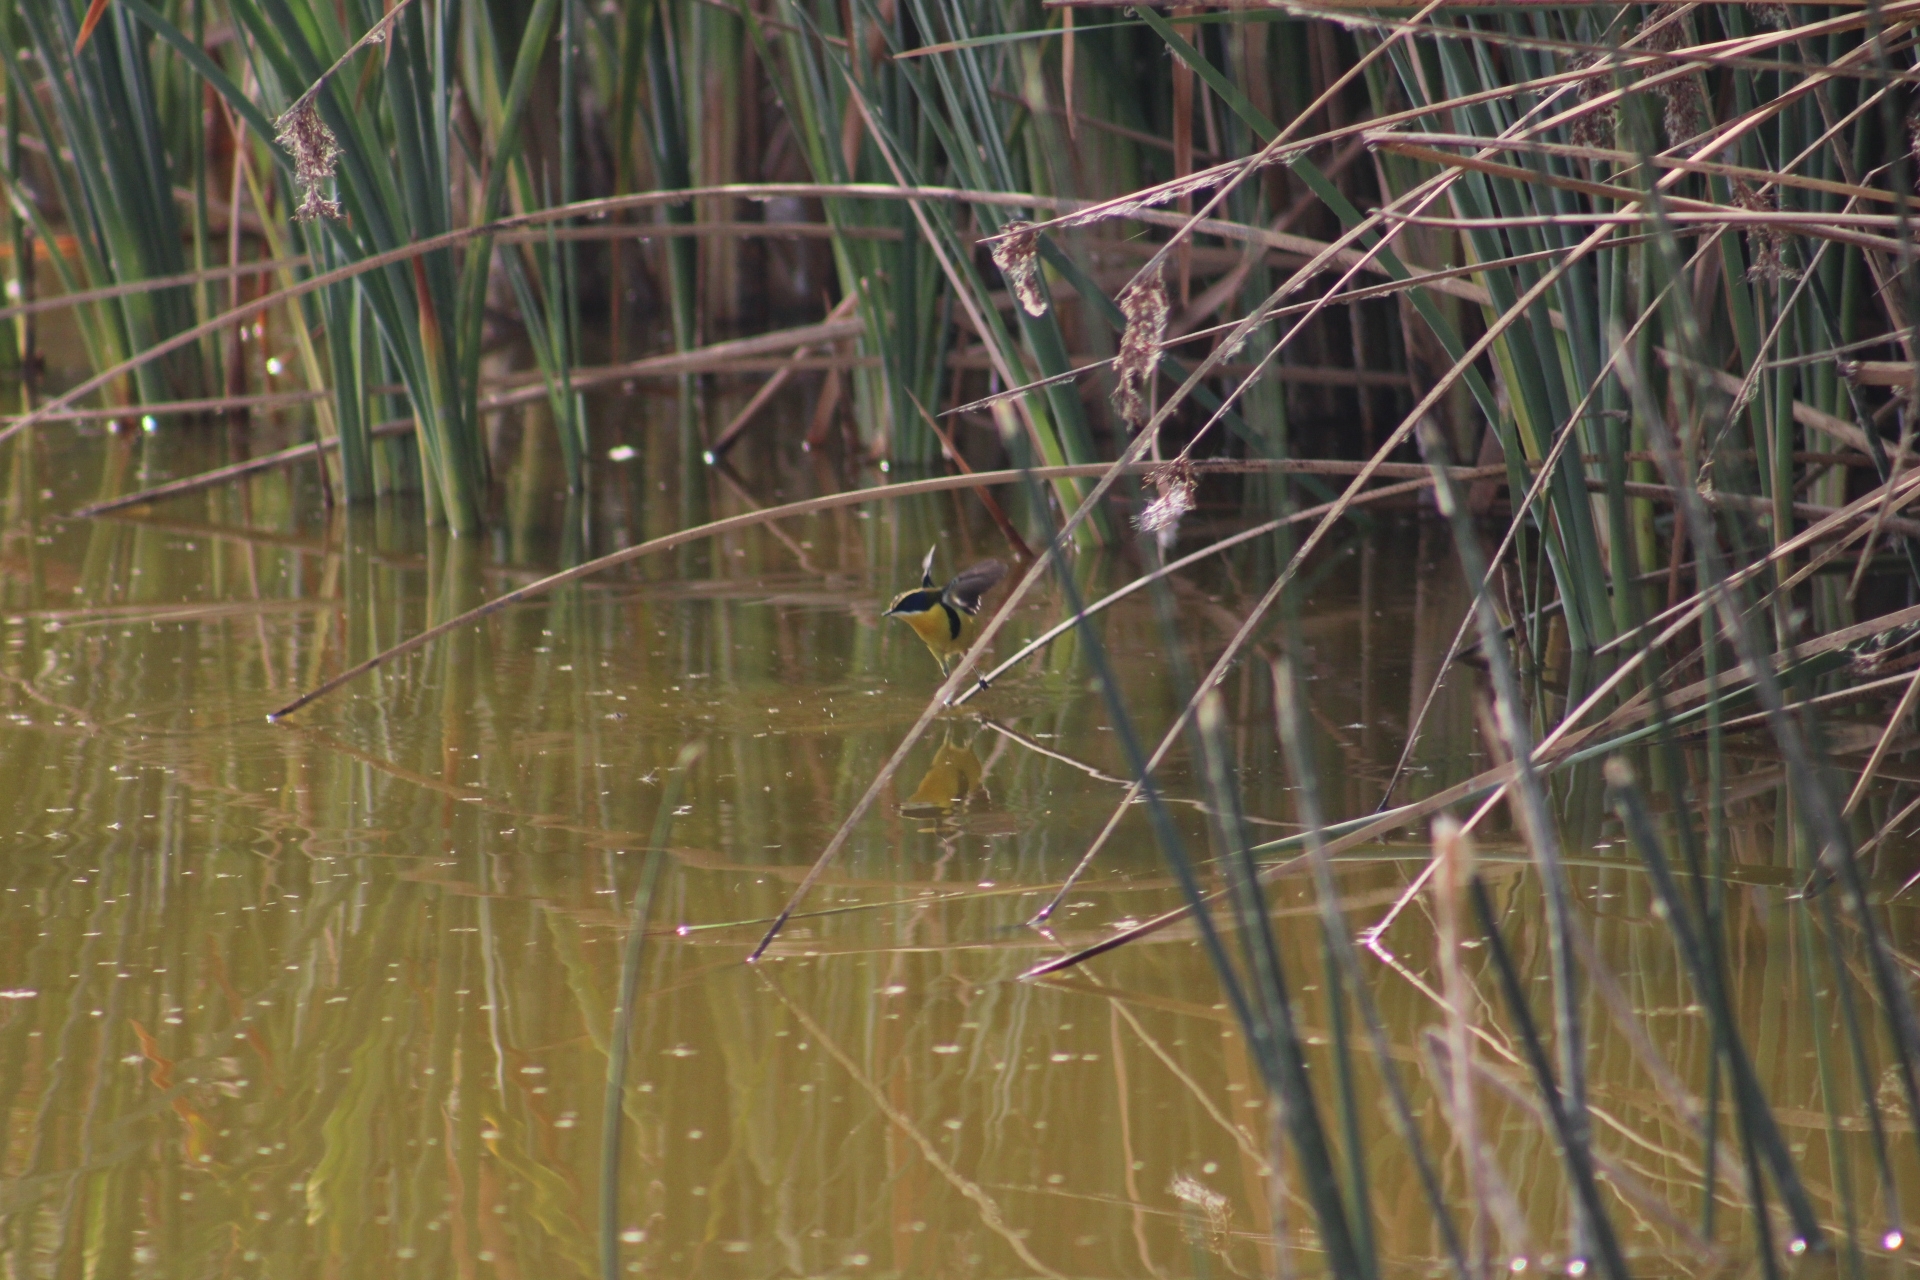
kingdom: Animalia
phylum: Chordata
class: Aves
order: Passeriformes
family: Tyrannidae
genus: Tachuris
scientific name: Tachuris rubrigastra
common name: Many-colored rush tyrant
